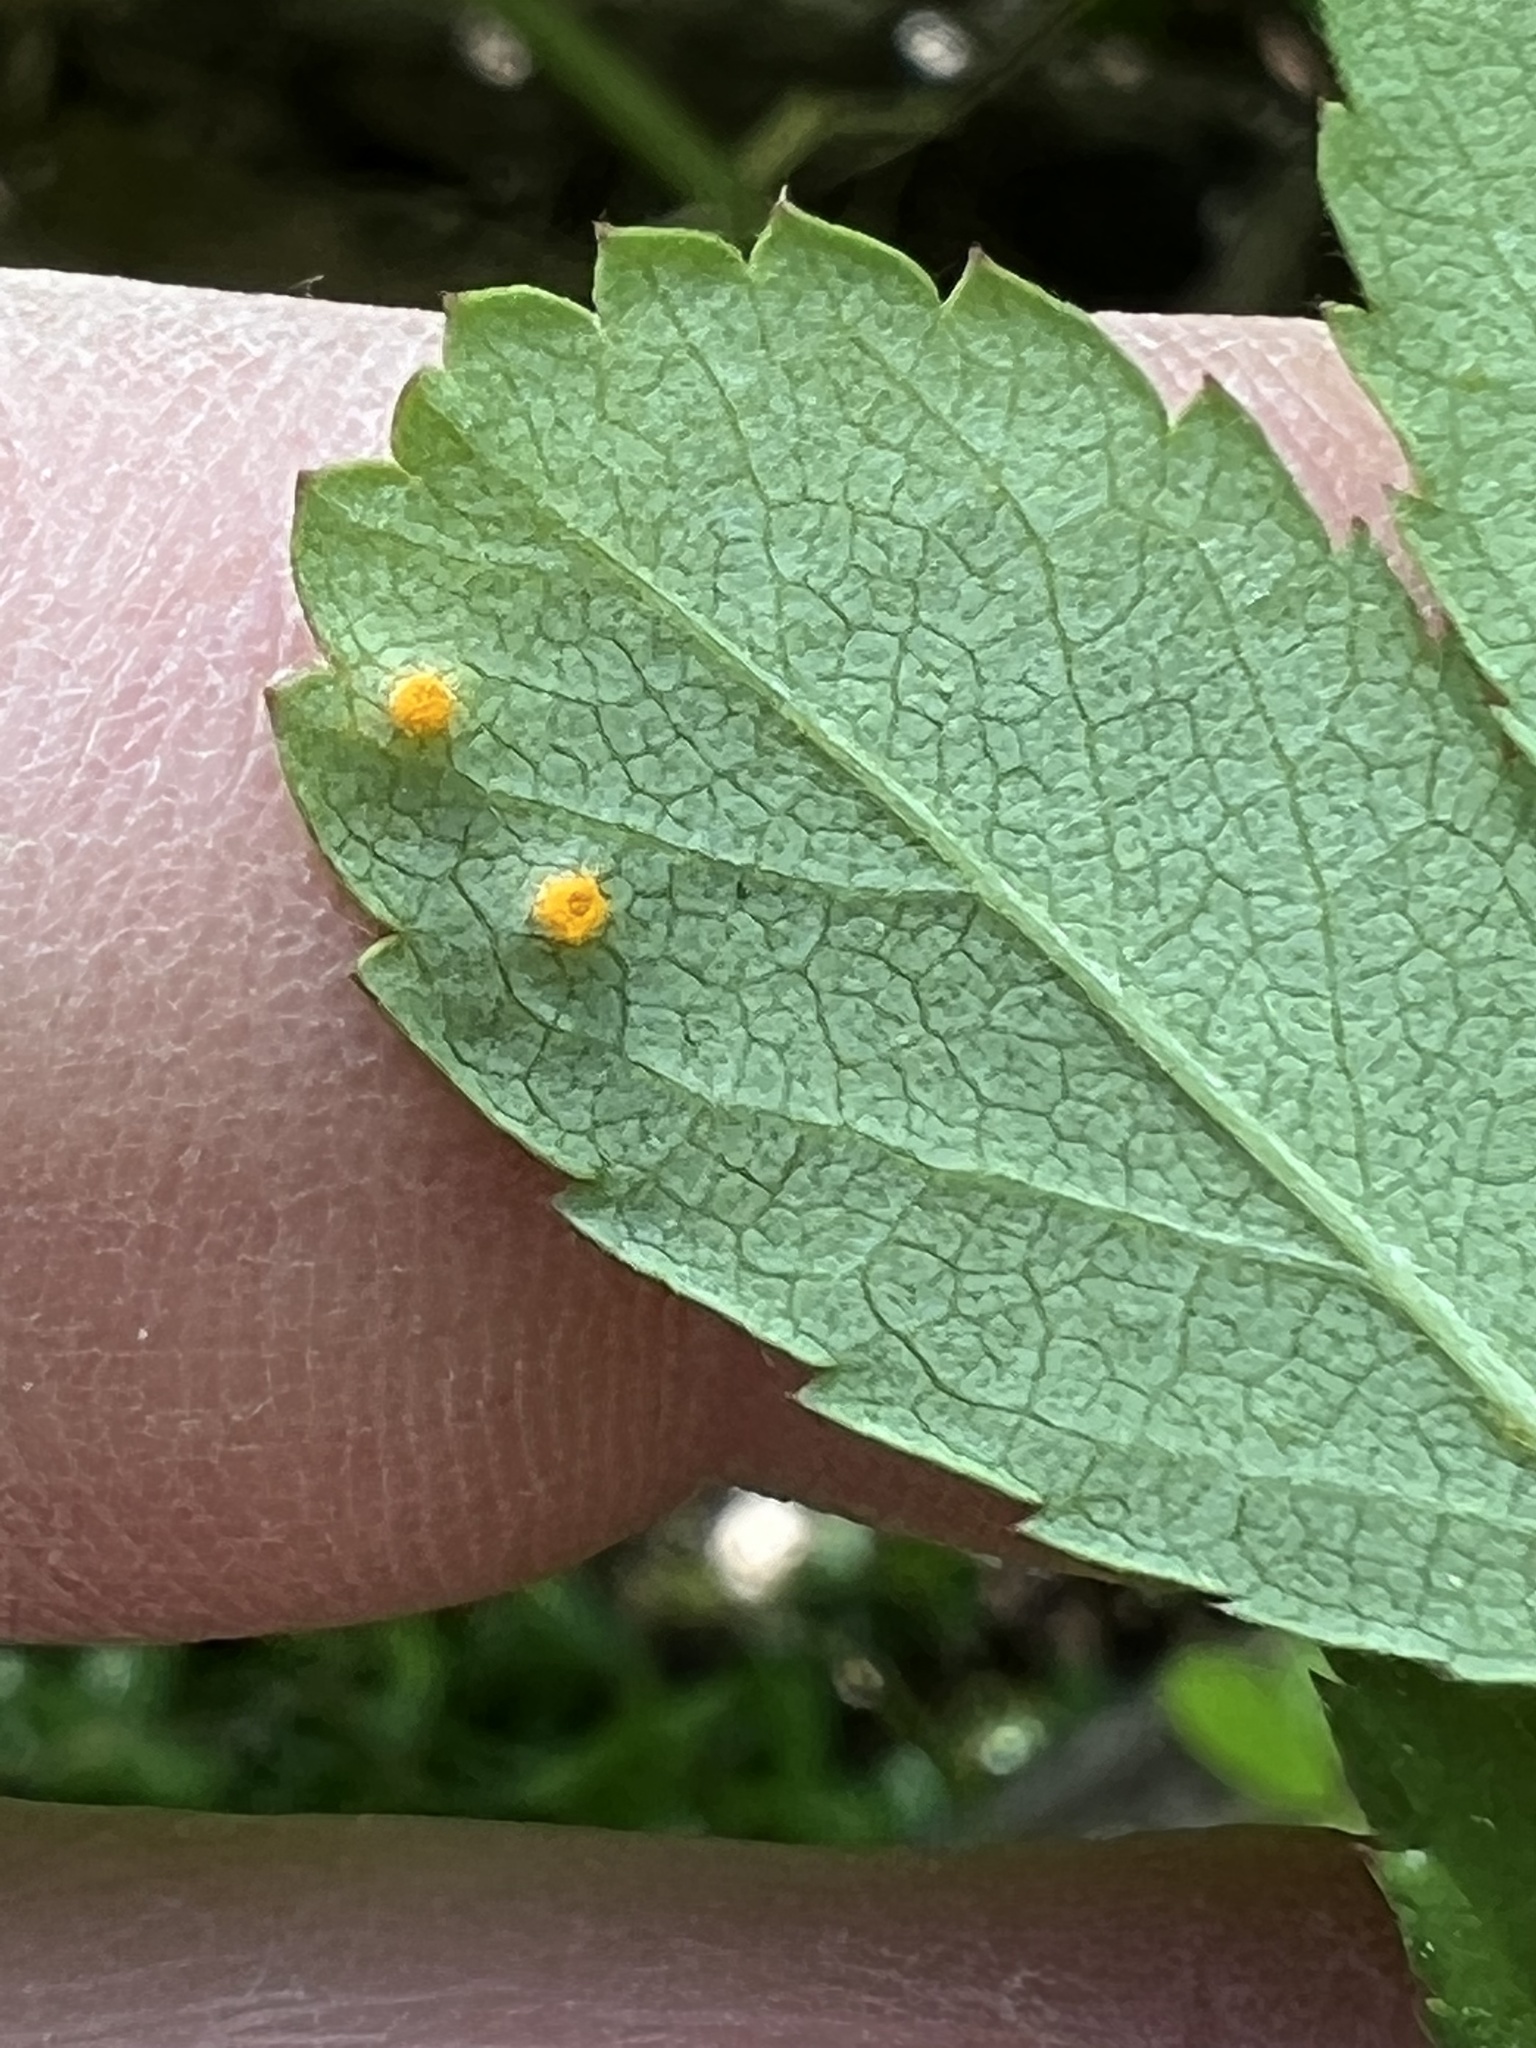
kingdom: Fungi
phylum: Basidiomycota
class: Pucciniomycetes
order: Pucciniales
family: Phragmidiaceae
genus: Phragmidium
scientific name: Phragmidium rosae-multiflorae
